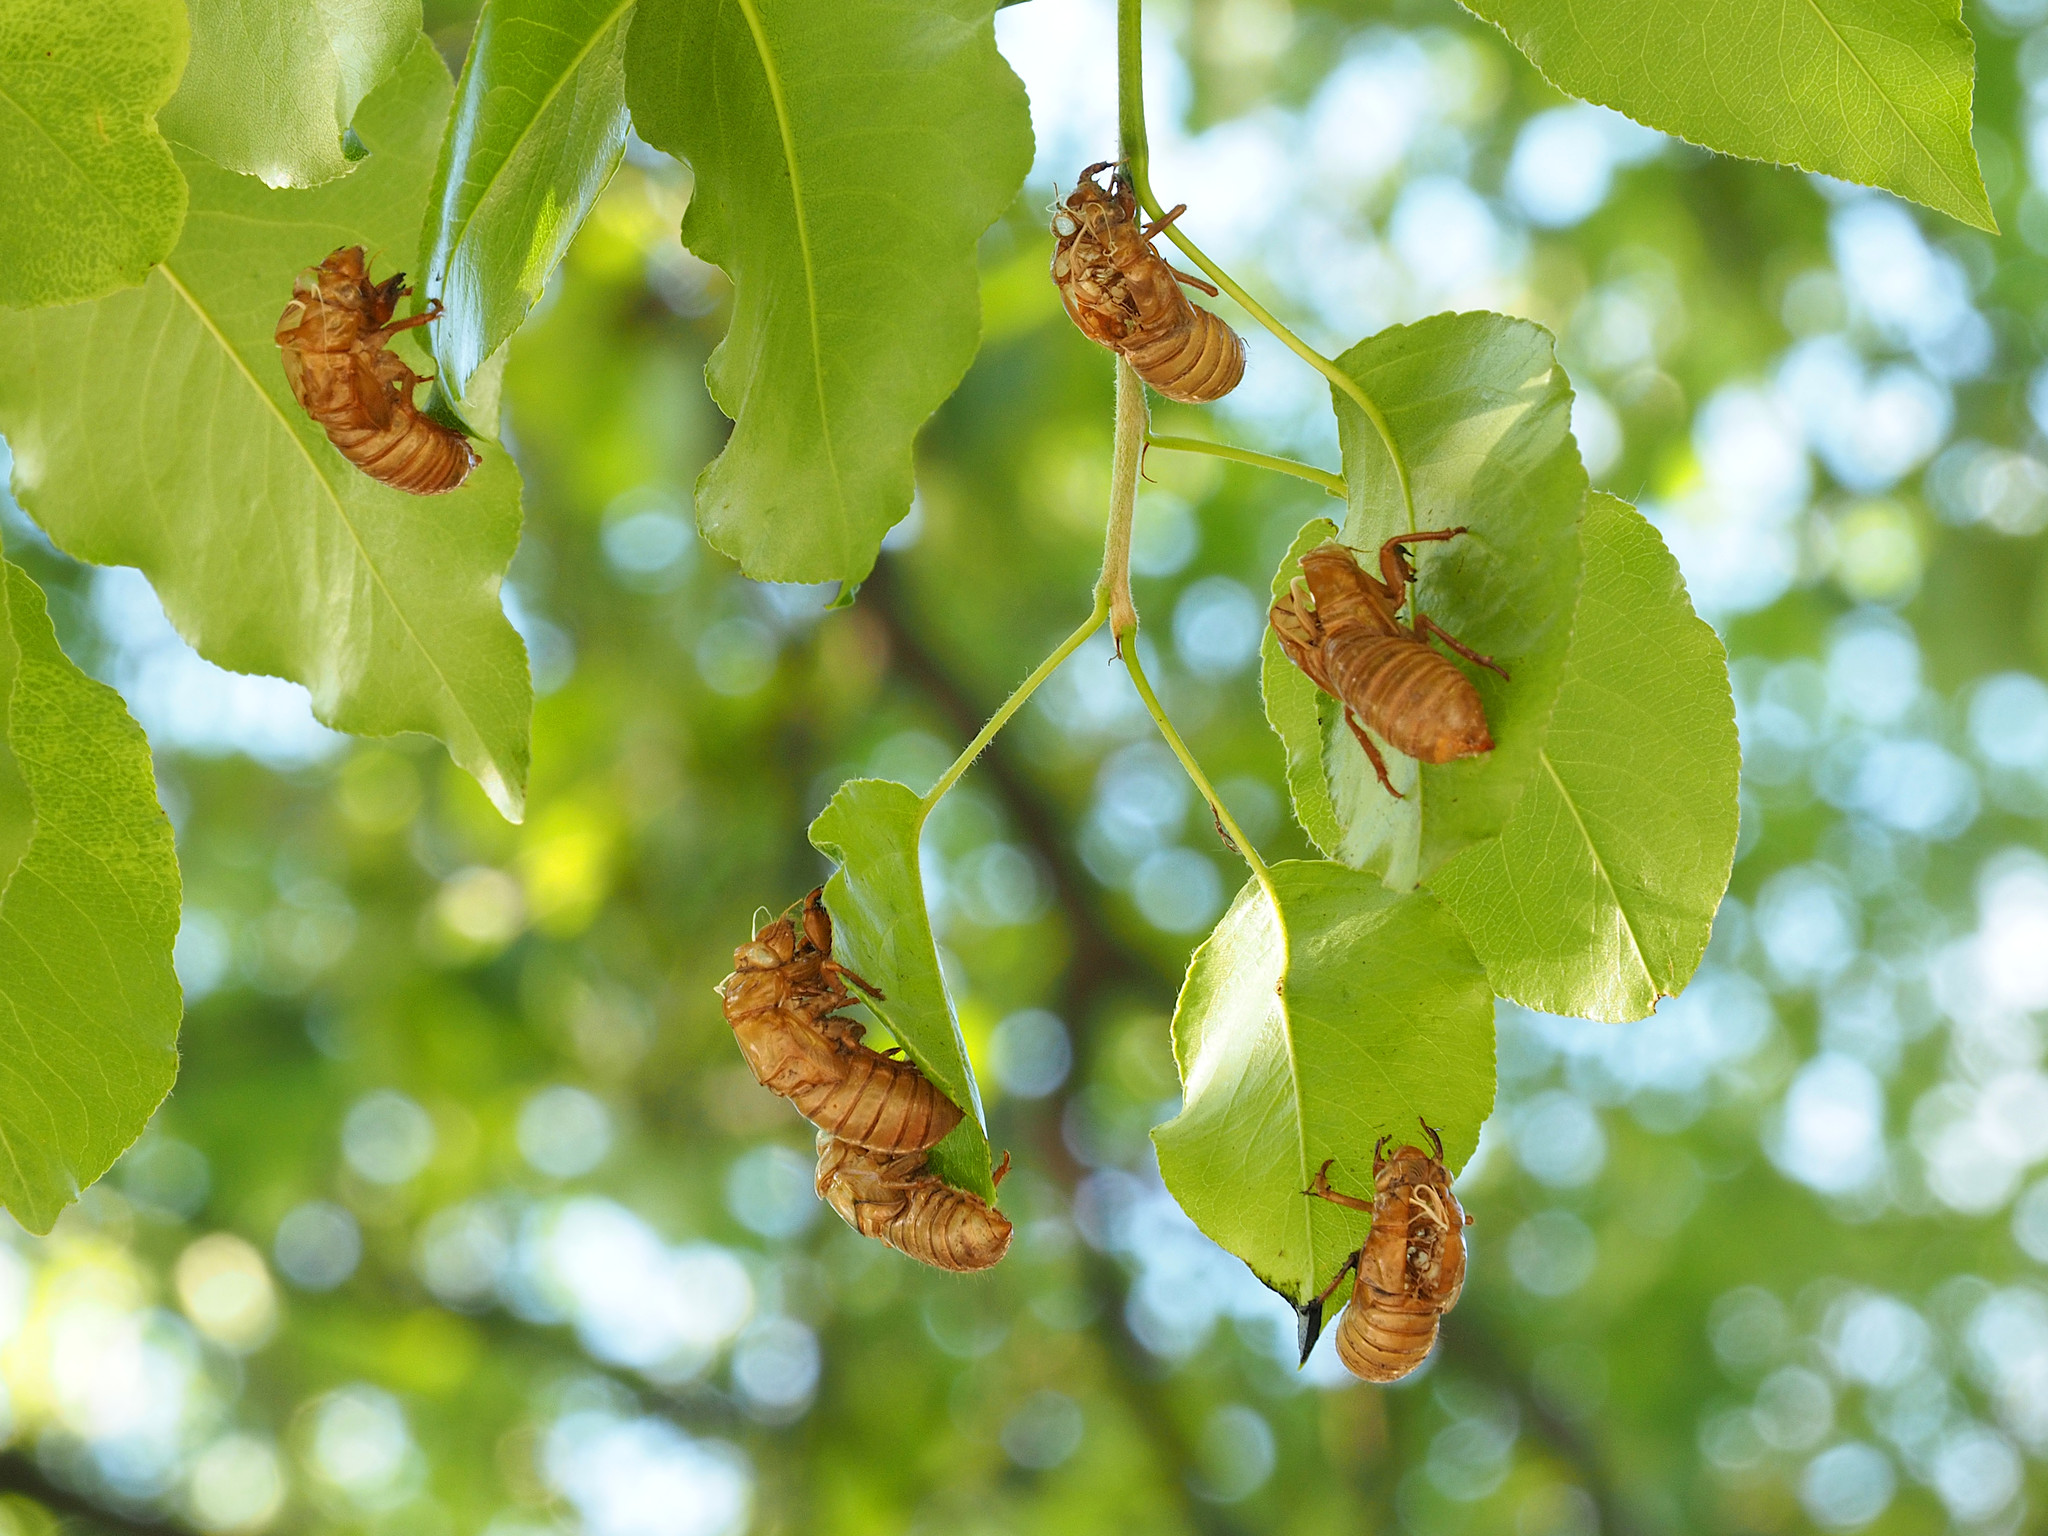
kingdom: Animalia
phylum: Arthropoda
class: Insecta
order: Hemiptera
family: Cicadidae
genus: Magicicada
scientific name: Magicicada
